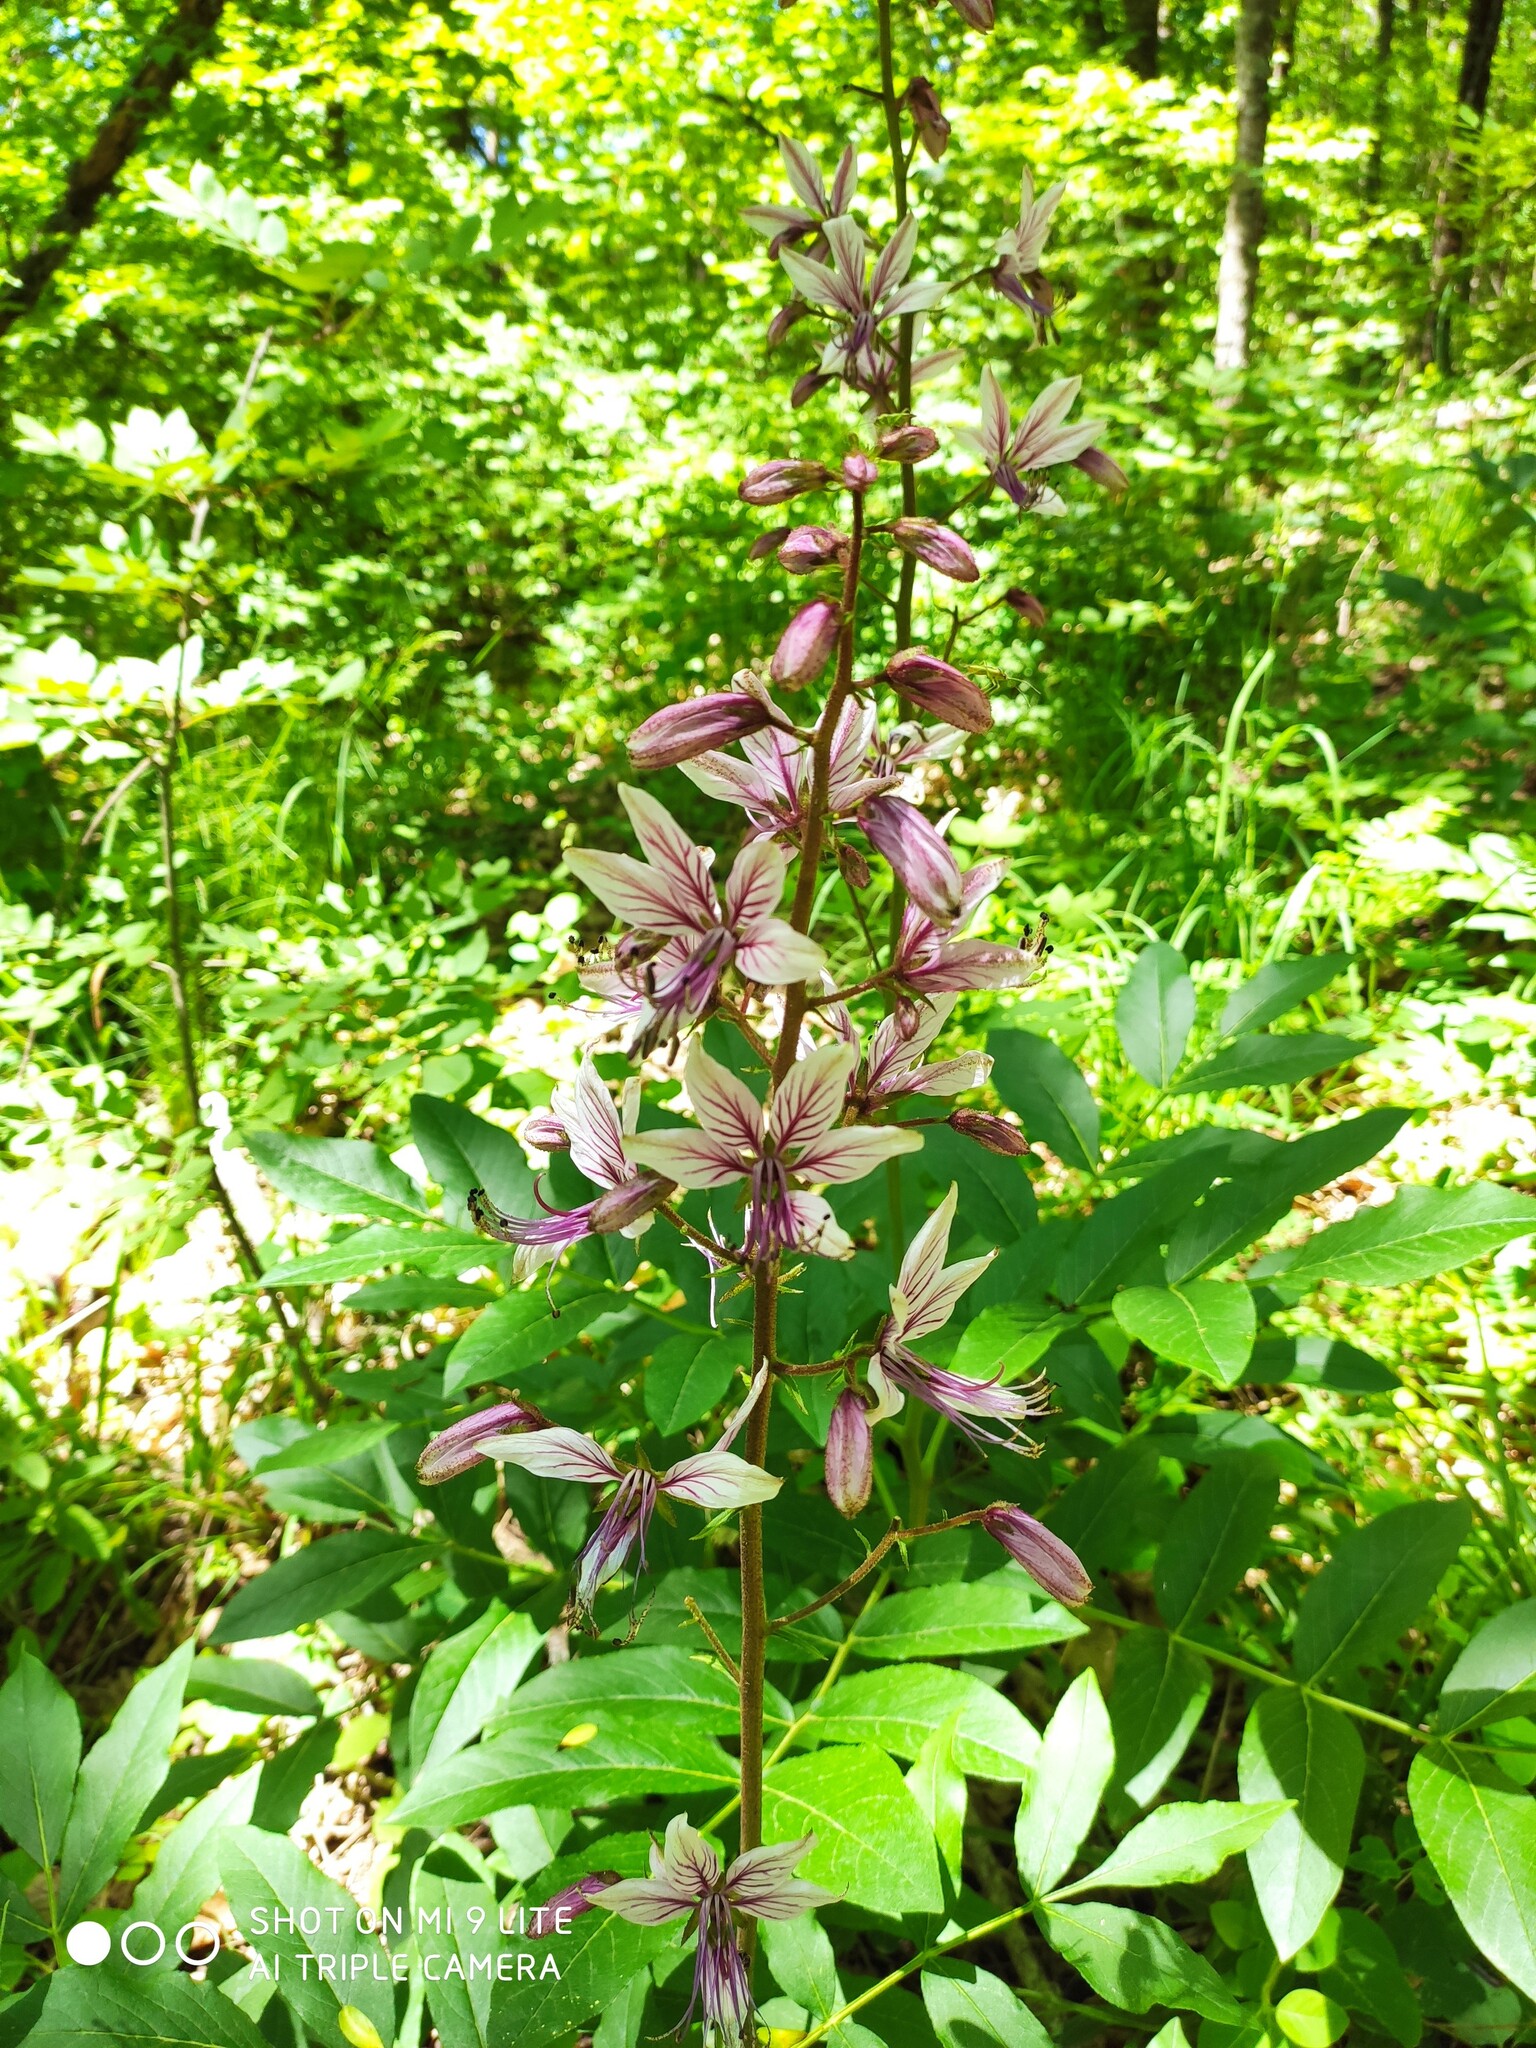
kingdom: Plantae
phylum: Tracheophyta
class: Magnoliopsida
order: Sapindales
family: Rutaceae
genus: Dictamnus
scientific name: Dictamnus albus
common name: Gasplant
